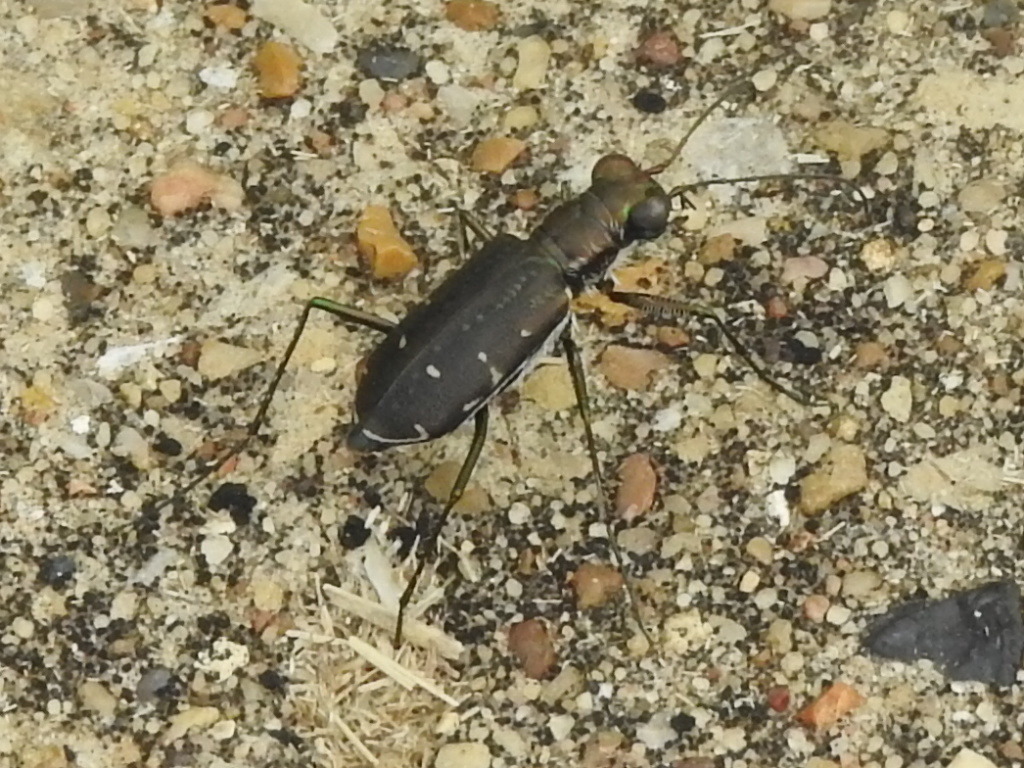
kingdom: Animalia
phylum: Arthropoda
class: Insecta
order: Coleoptera
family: Carabidae
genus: Cicindela
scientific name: Cicindela punctulata
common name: Punctured tiger beetle
